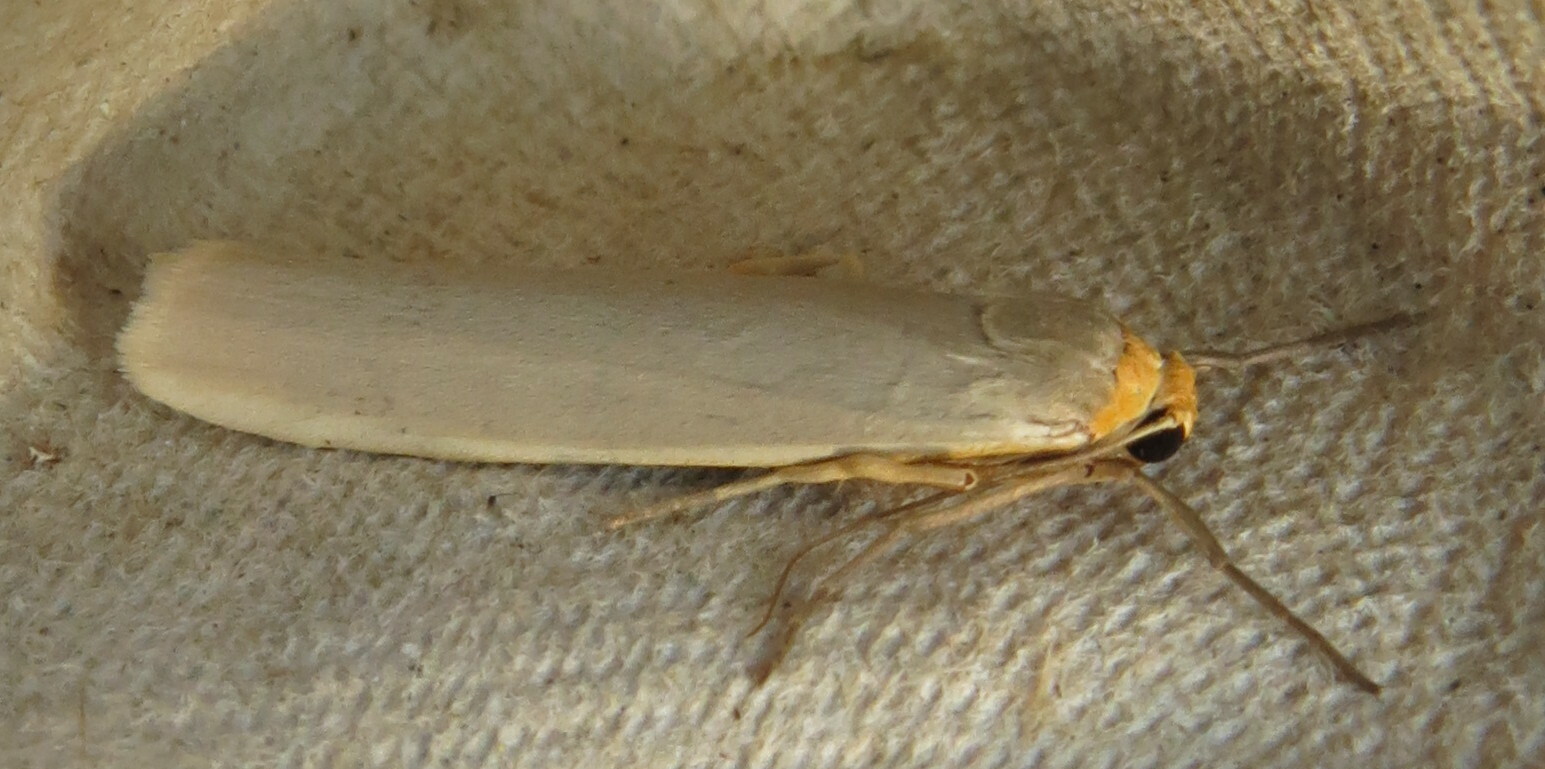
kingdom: Animalia
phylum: Arthropoda
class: Insecta
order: Lepidoptera
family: Erebidae
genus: Eilema
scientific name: Eilema caniola
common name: Hoary footman
